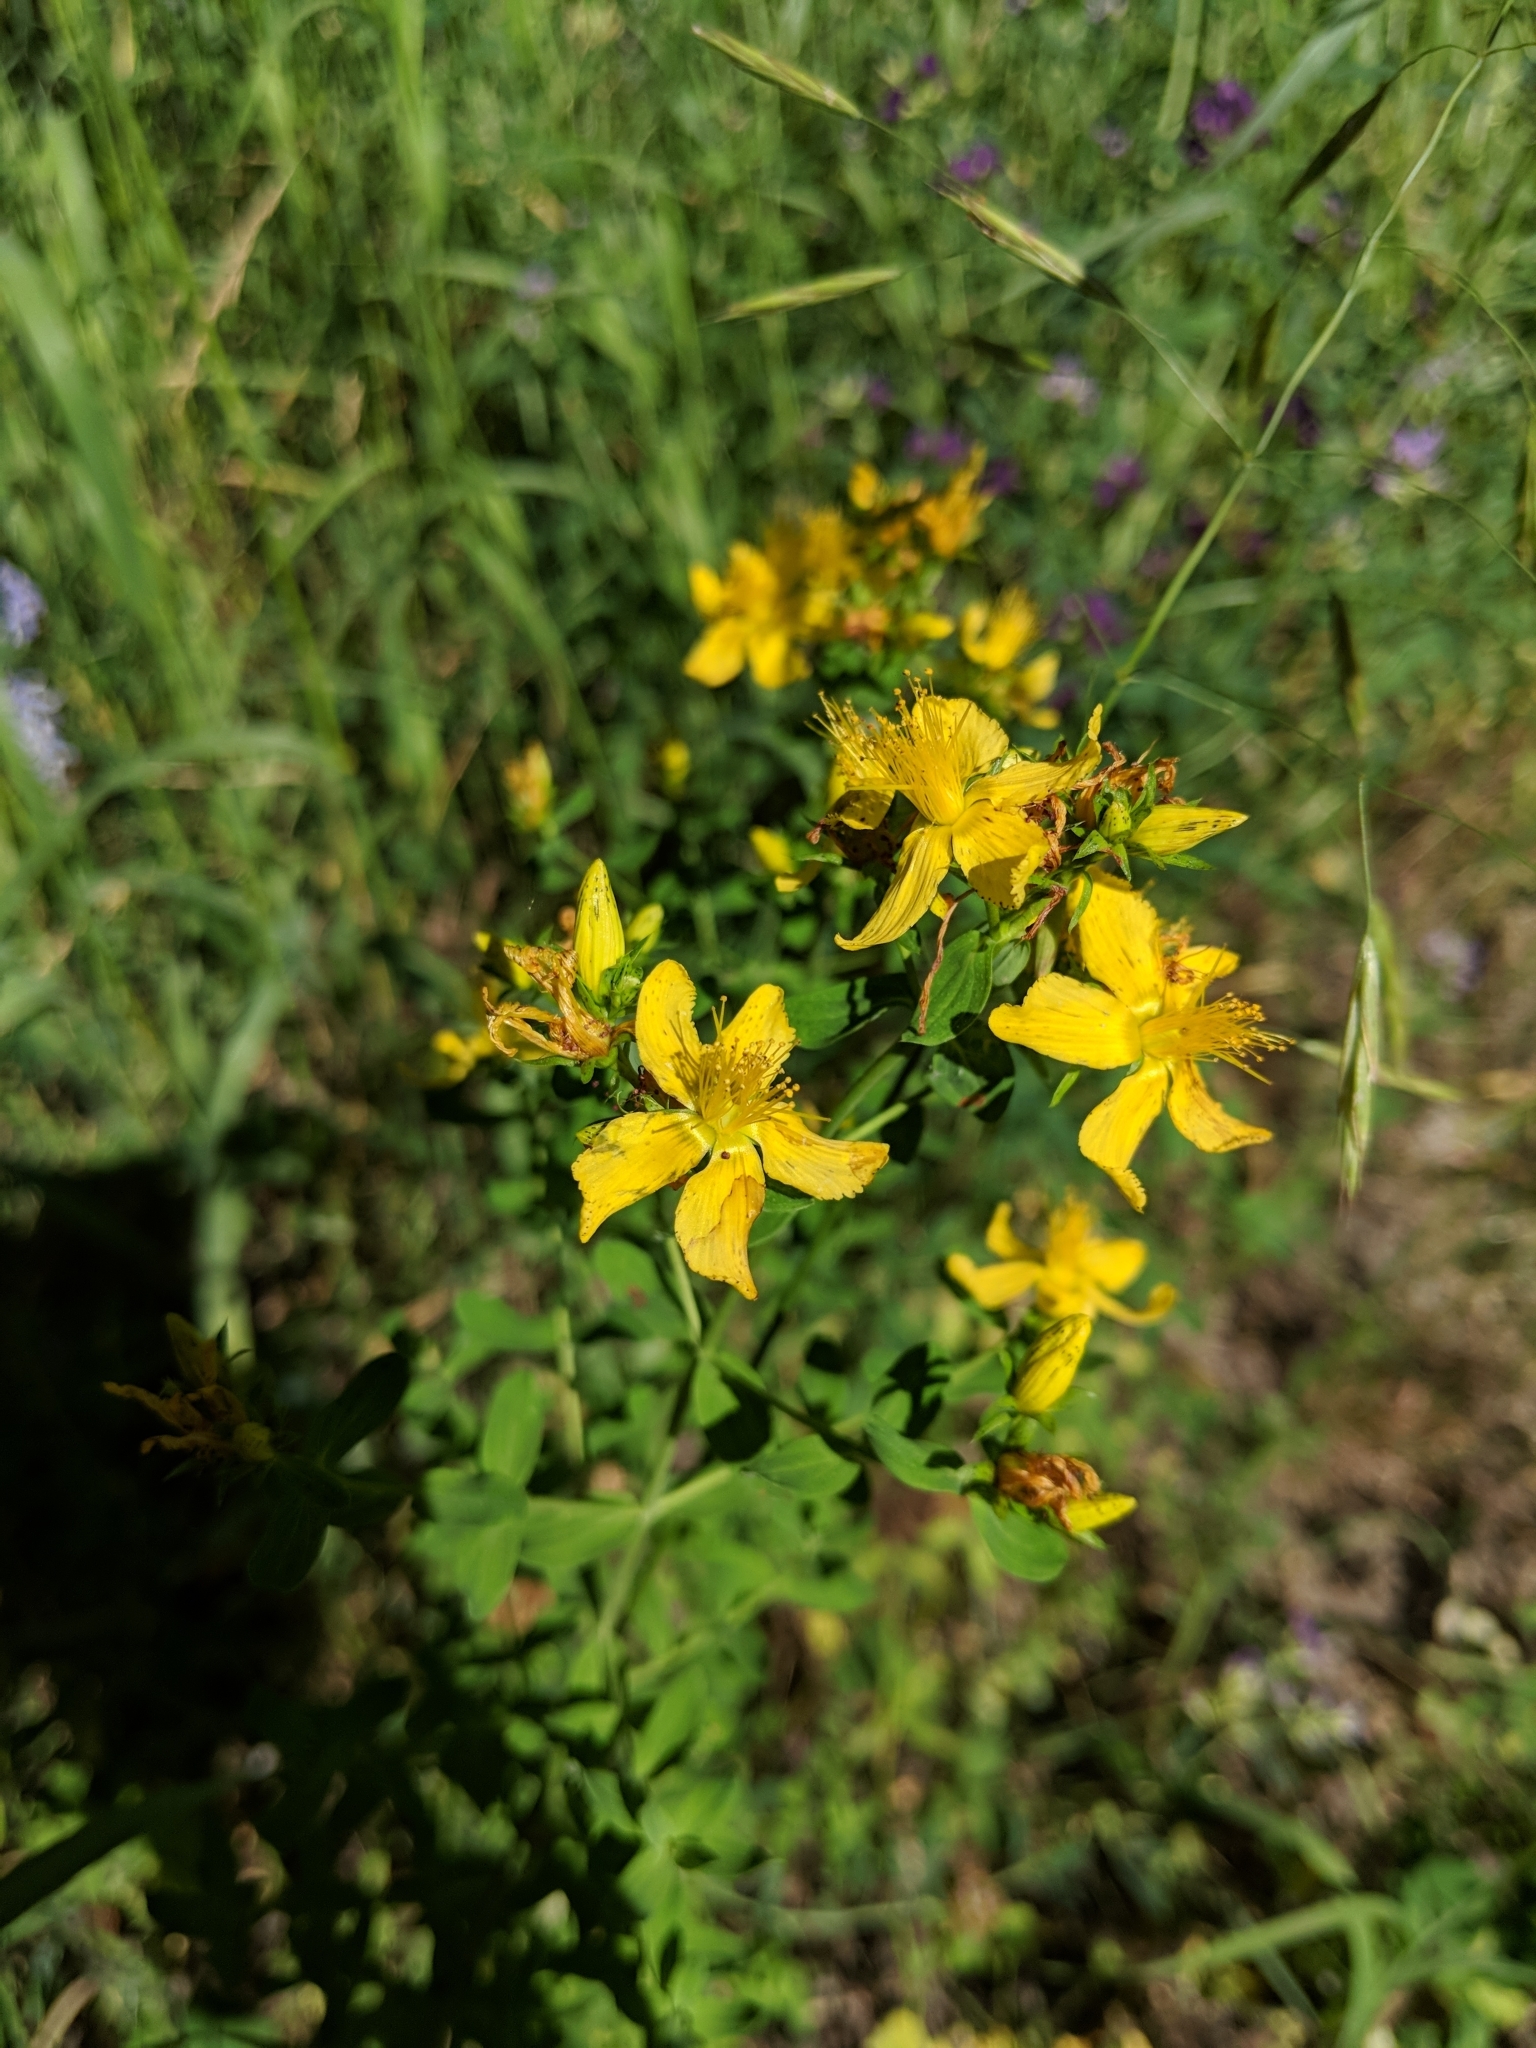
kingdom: Plantae
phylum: Tracheophyta
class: Magnoliopsida
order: Malpighiales
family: Hypericaceae
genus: Hypericum
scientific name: Hypericum perforatum
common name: Common st. johnswort
